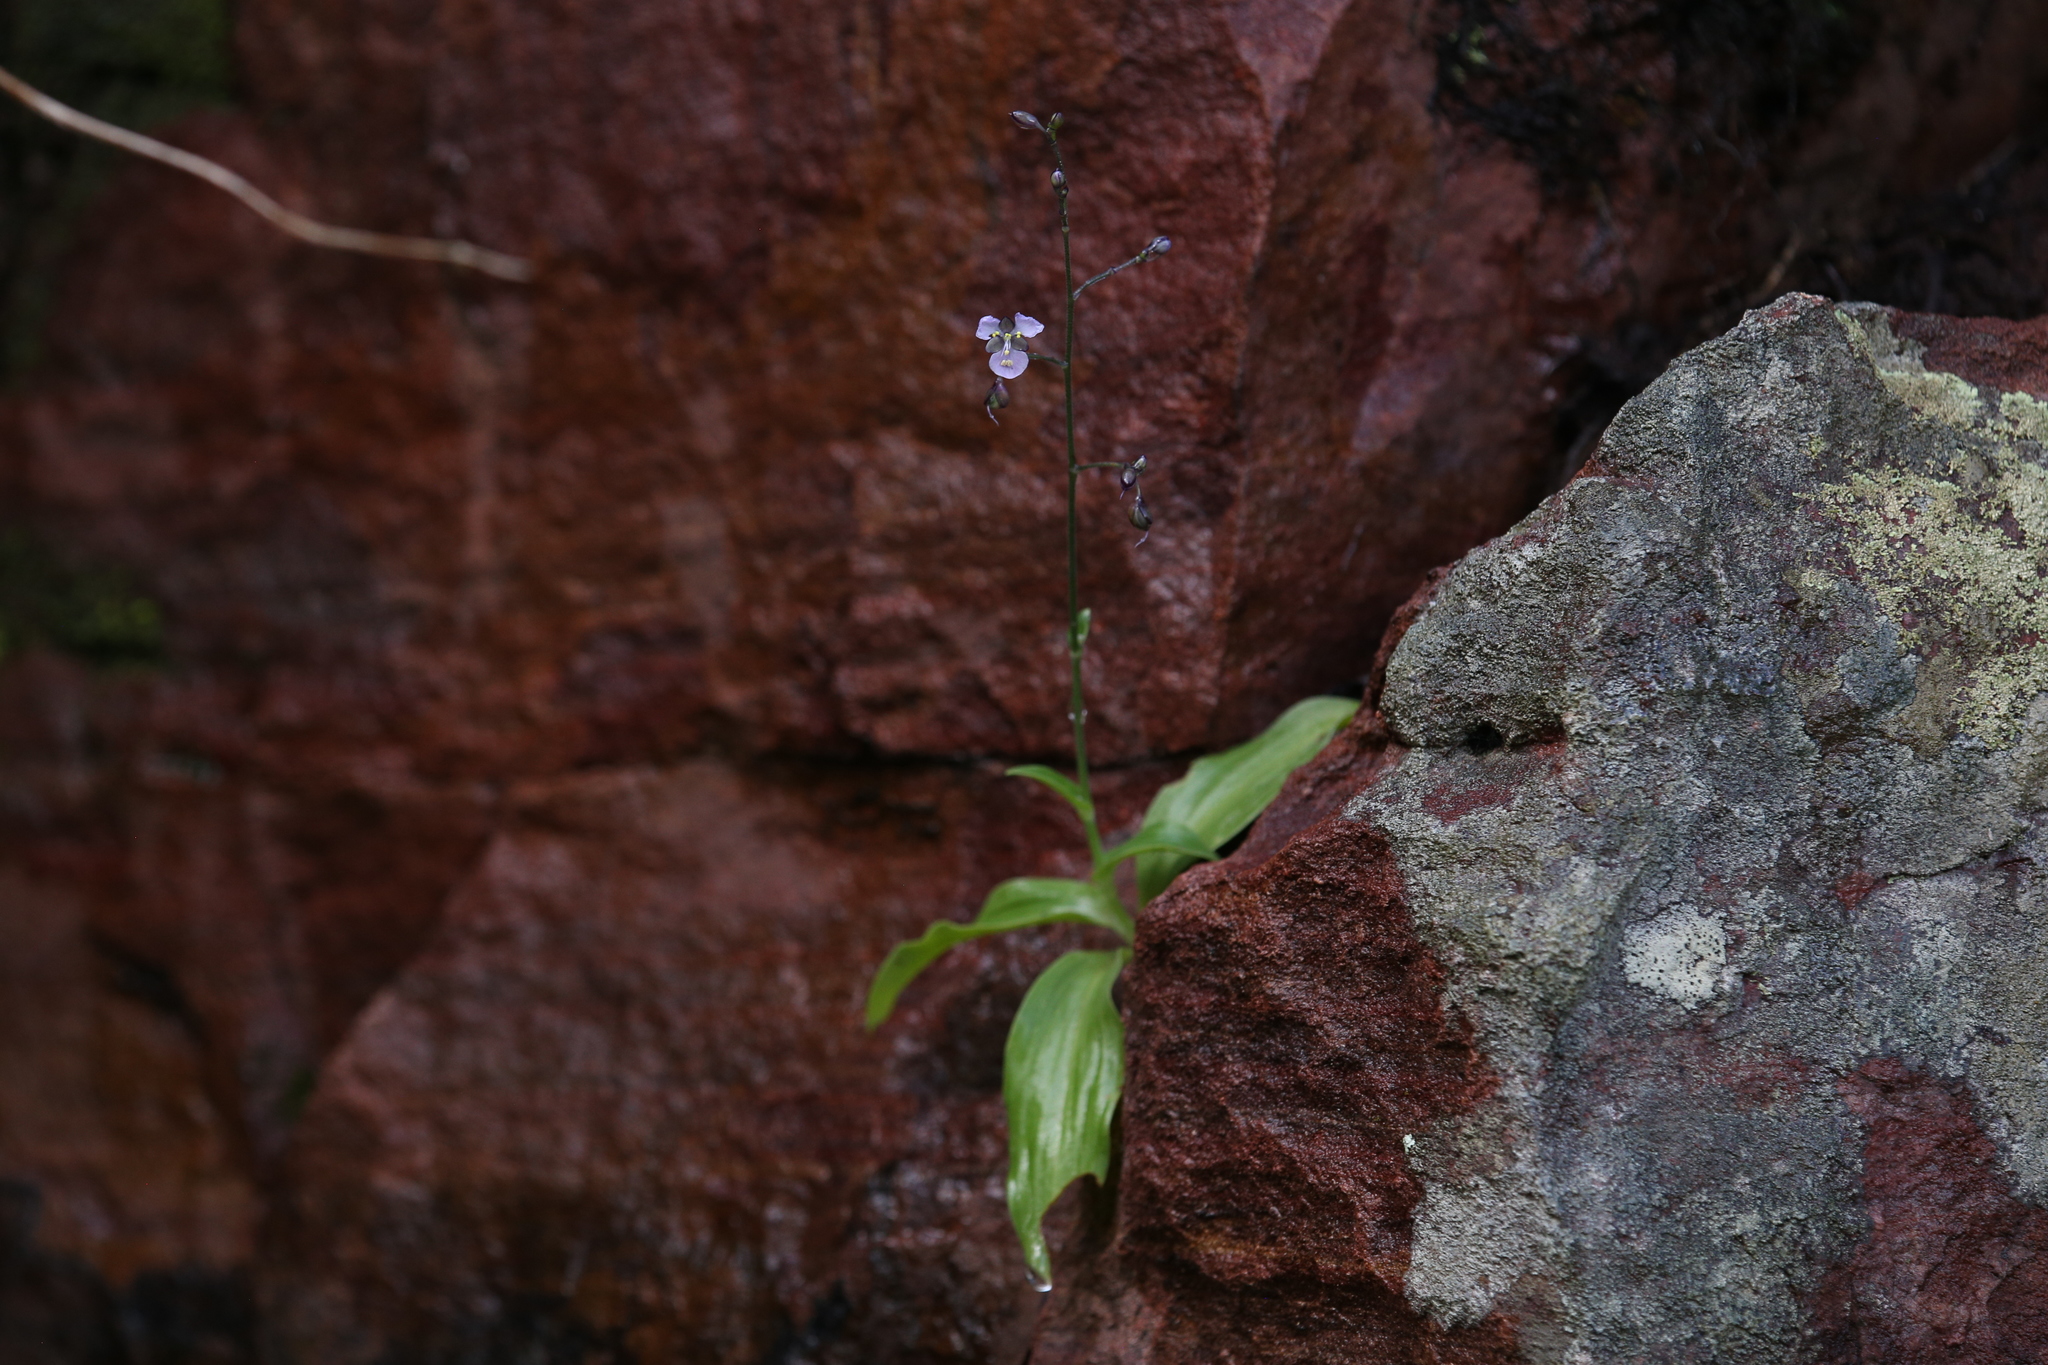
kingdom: Plantae
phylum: Tracheophyta
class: Liliopsida
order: Commelinales
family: Commelinaceae
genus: Aneilema
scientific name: Aneilema siliculosum
